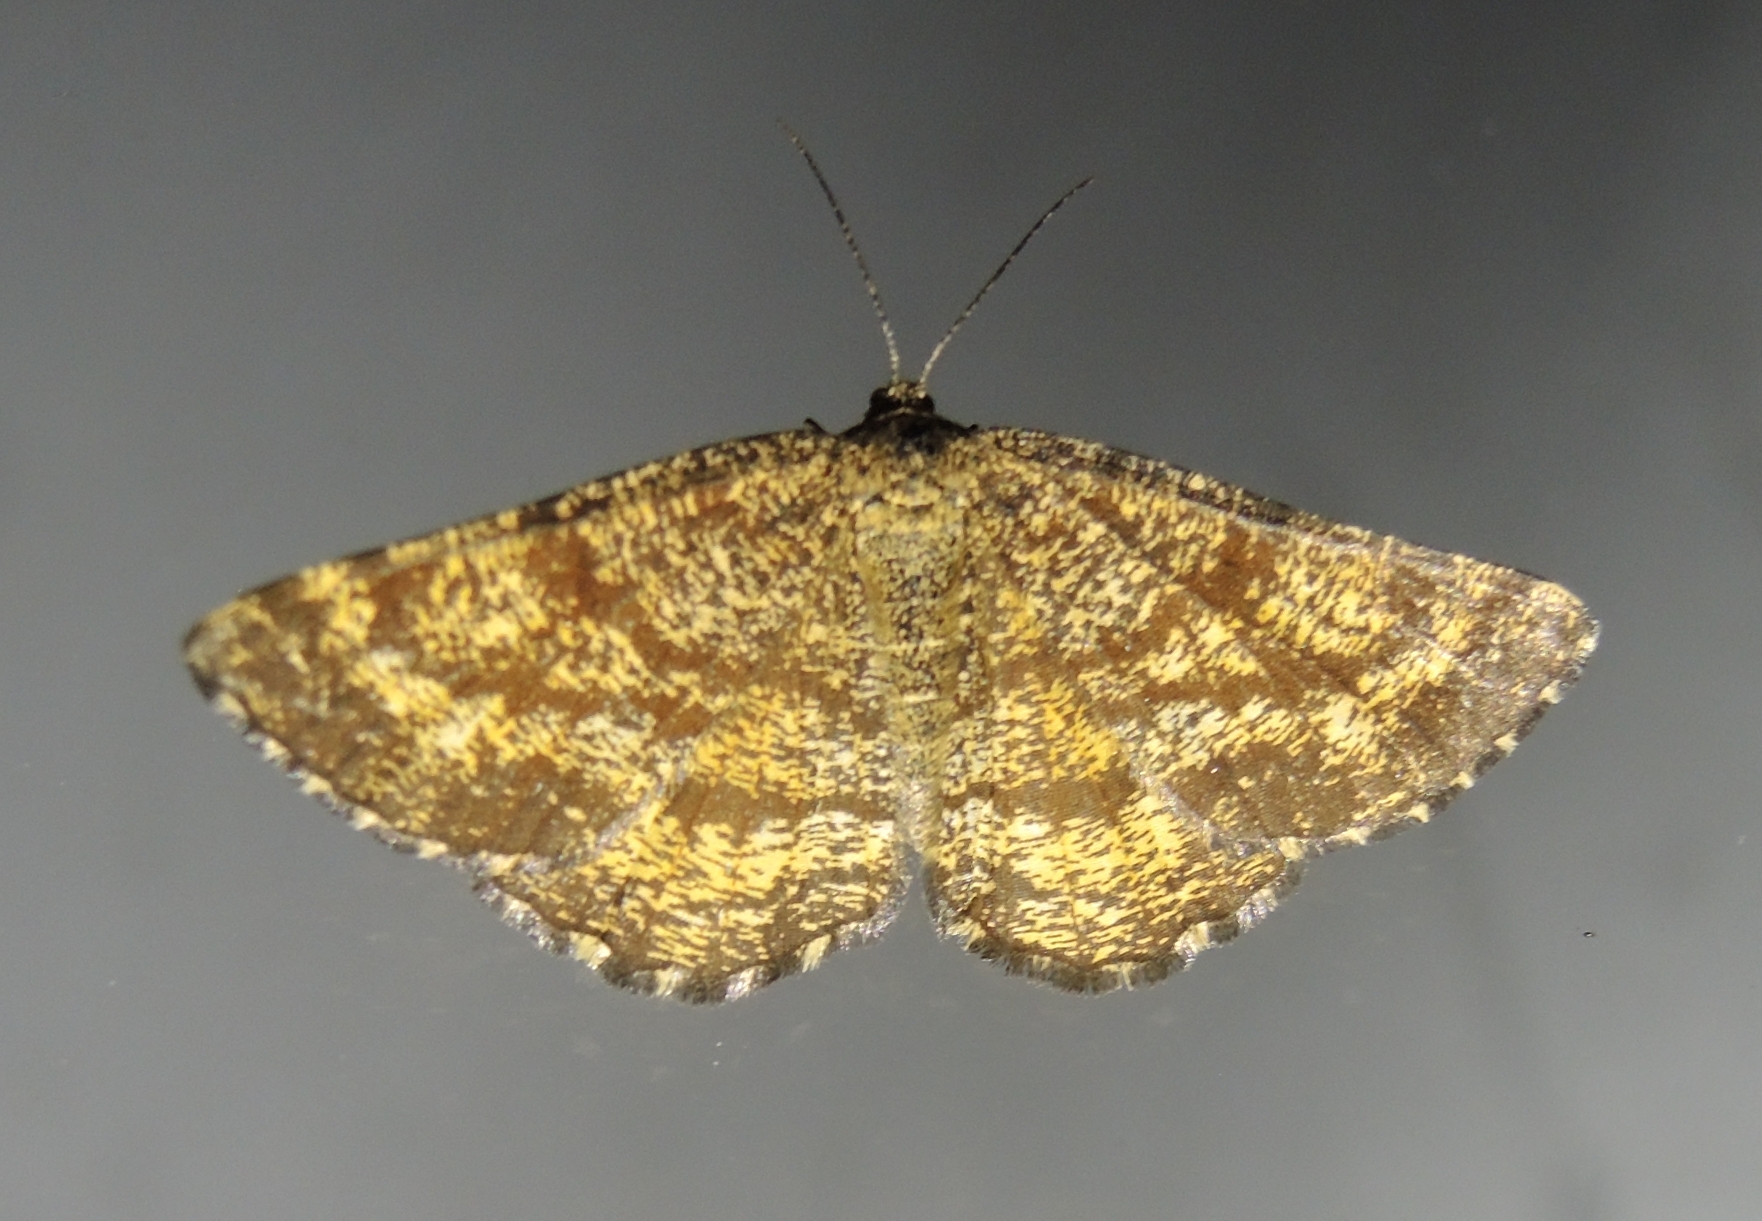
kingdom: Animalia
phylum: Arthropoda
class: Insecta
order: Lepidoptera
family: Geometridae
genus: Ematurga
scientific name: Ematurga atomaria
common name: Common heath
